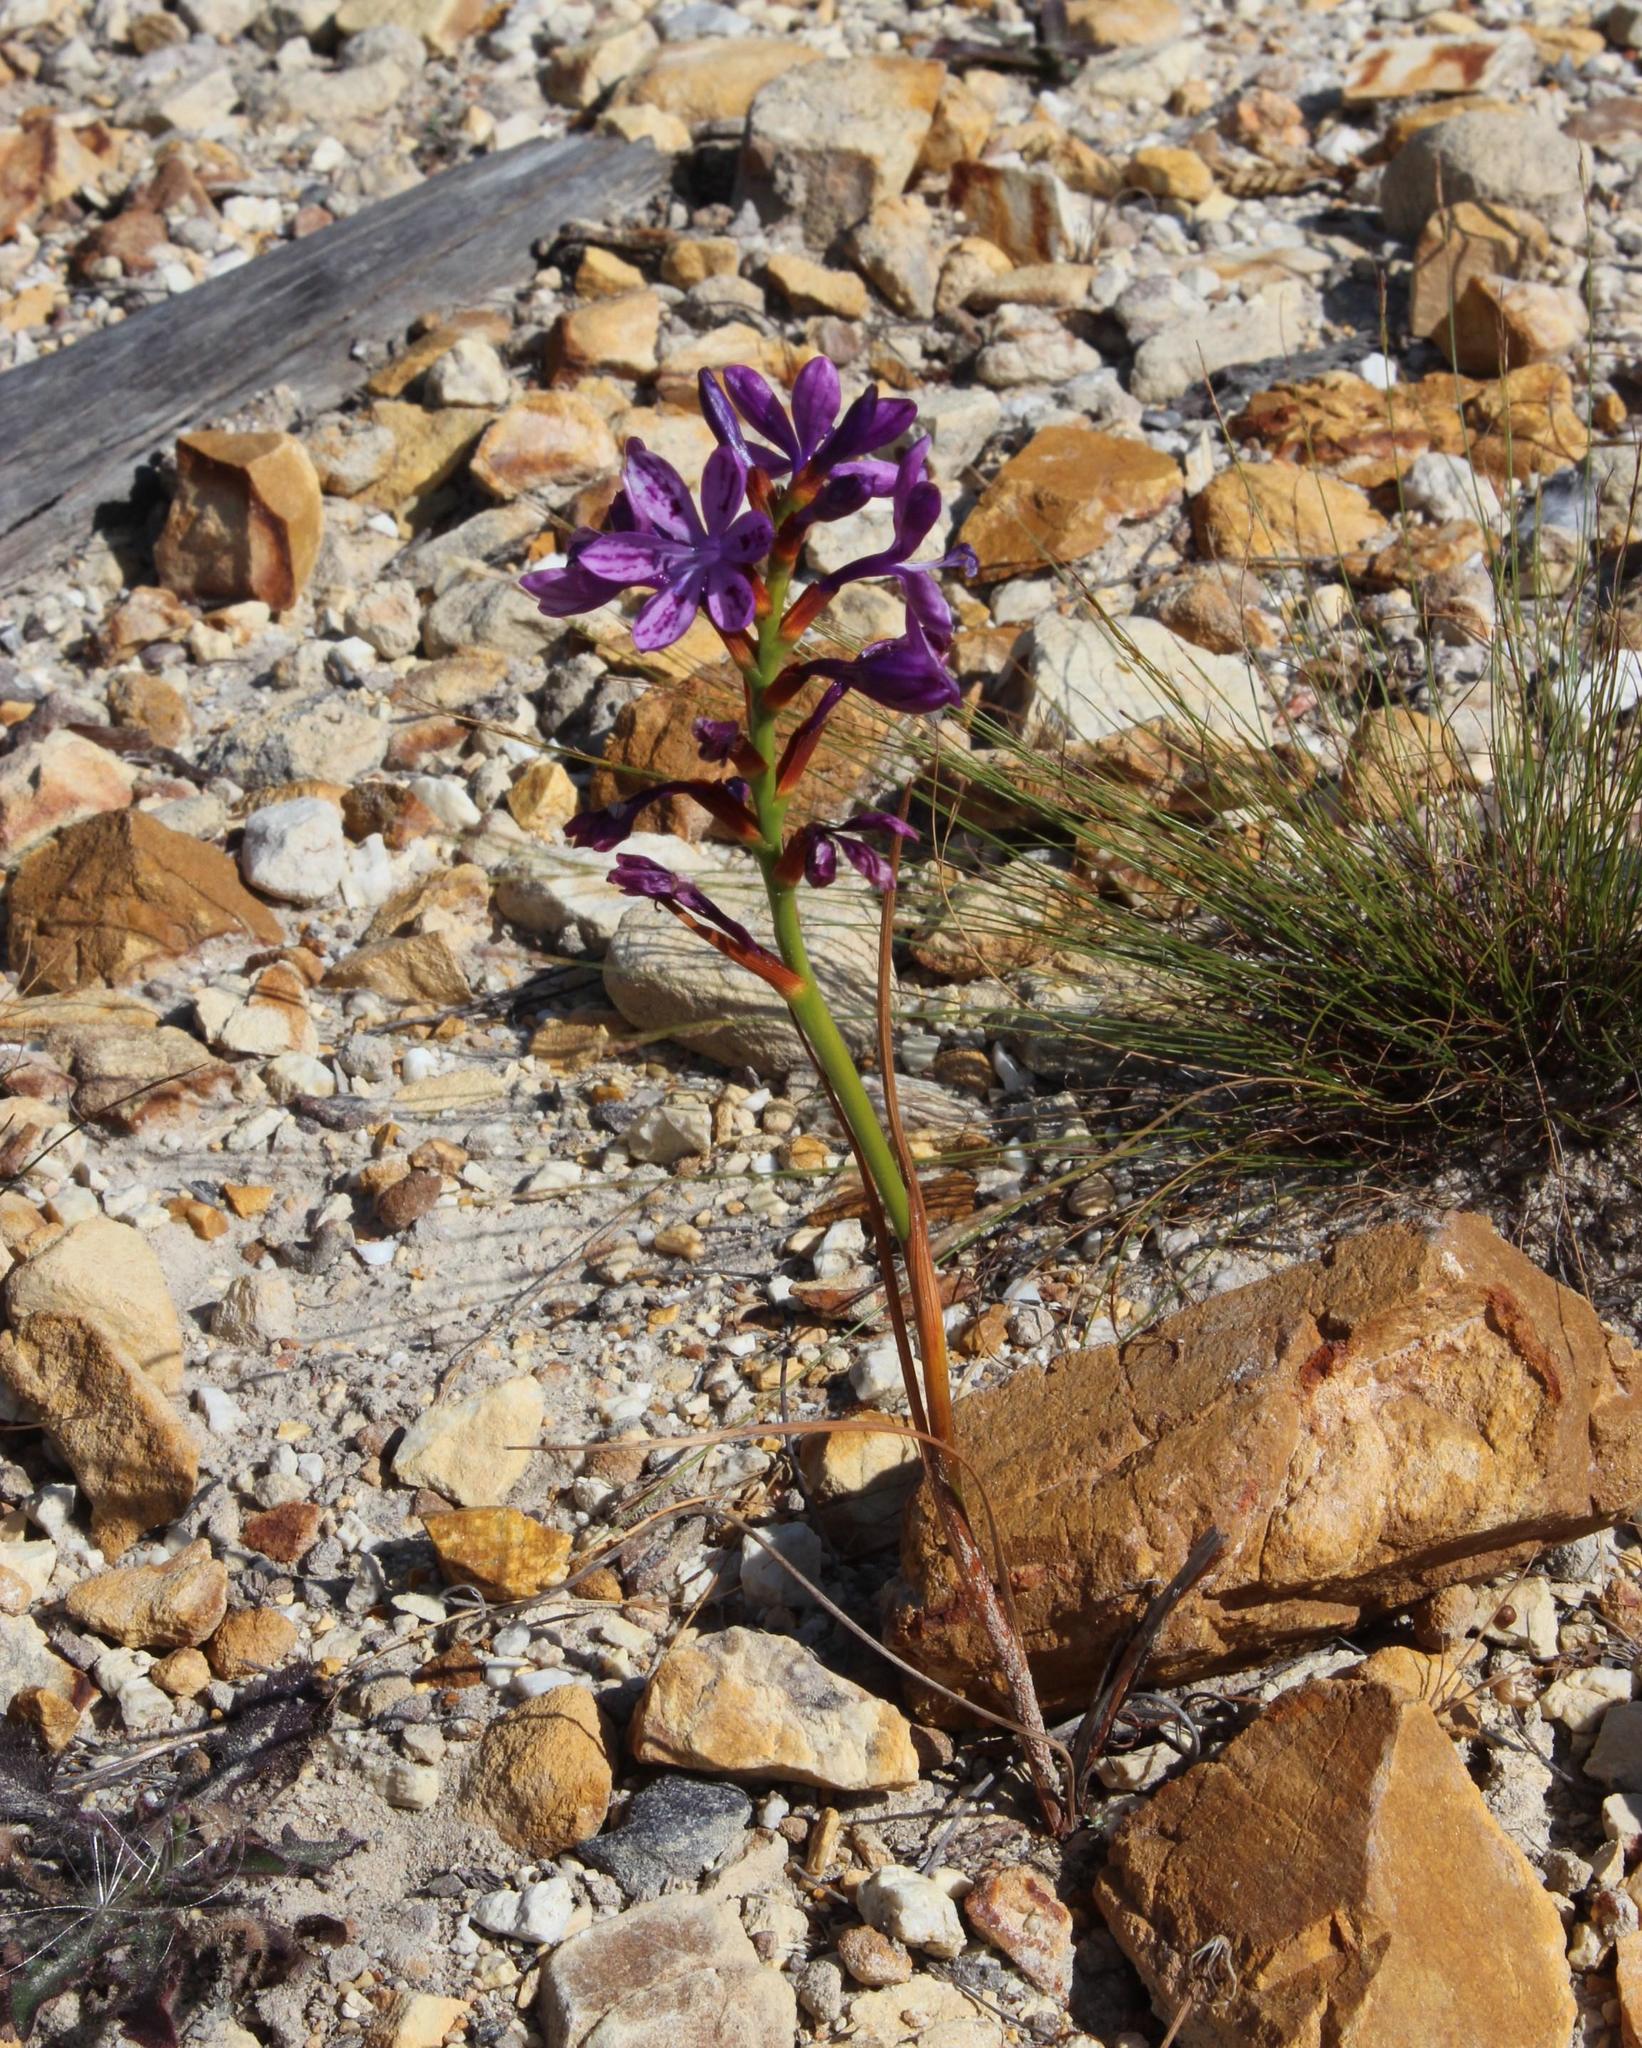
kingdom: Plantae
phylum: Tracheophyta
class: Liliopsida
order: Asparagales
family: Iridaceae
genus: Thereianthus
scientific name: Thereianthus bracteolatus
